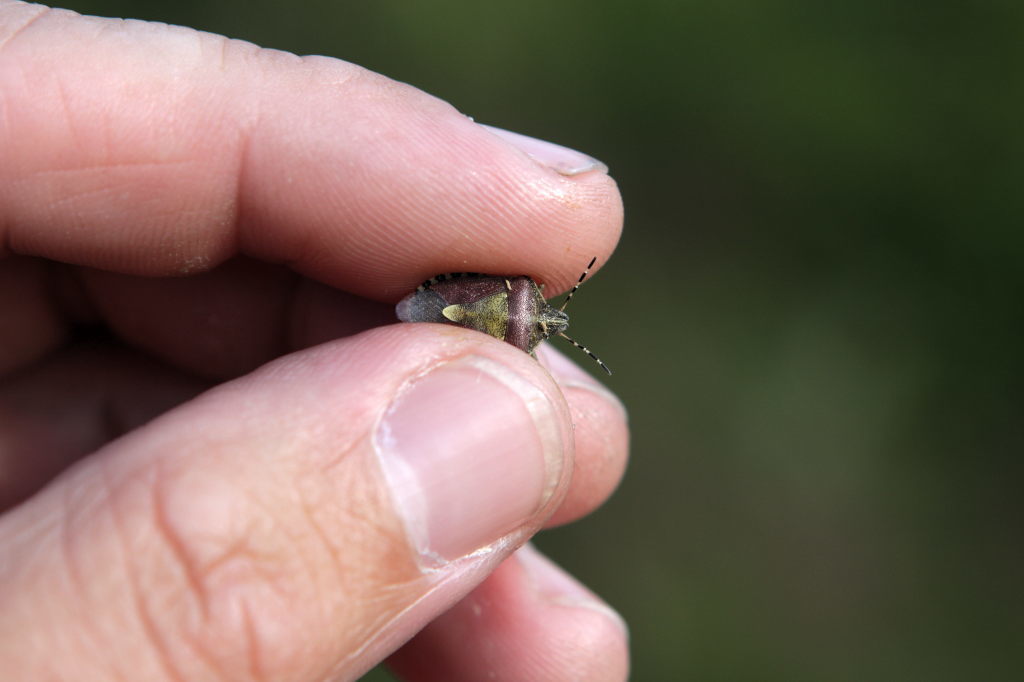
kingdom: Animalia
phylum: Arthropoda
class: Insecta
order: Hemiptera
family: Pentatomidae
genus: Dolycoris
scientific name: Dolycoris baccarum
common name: Sloe bug
